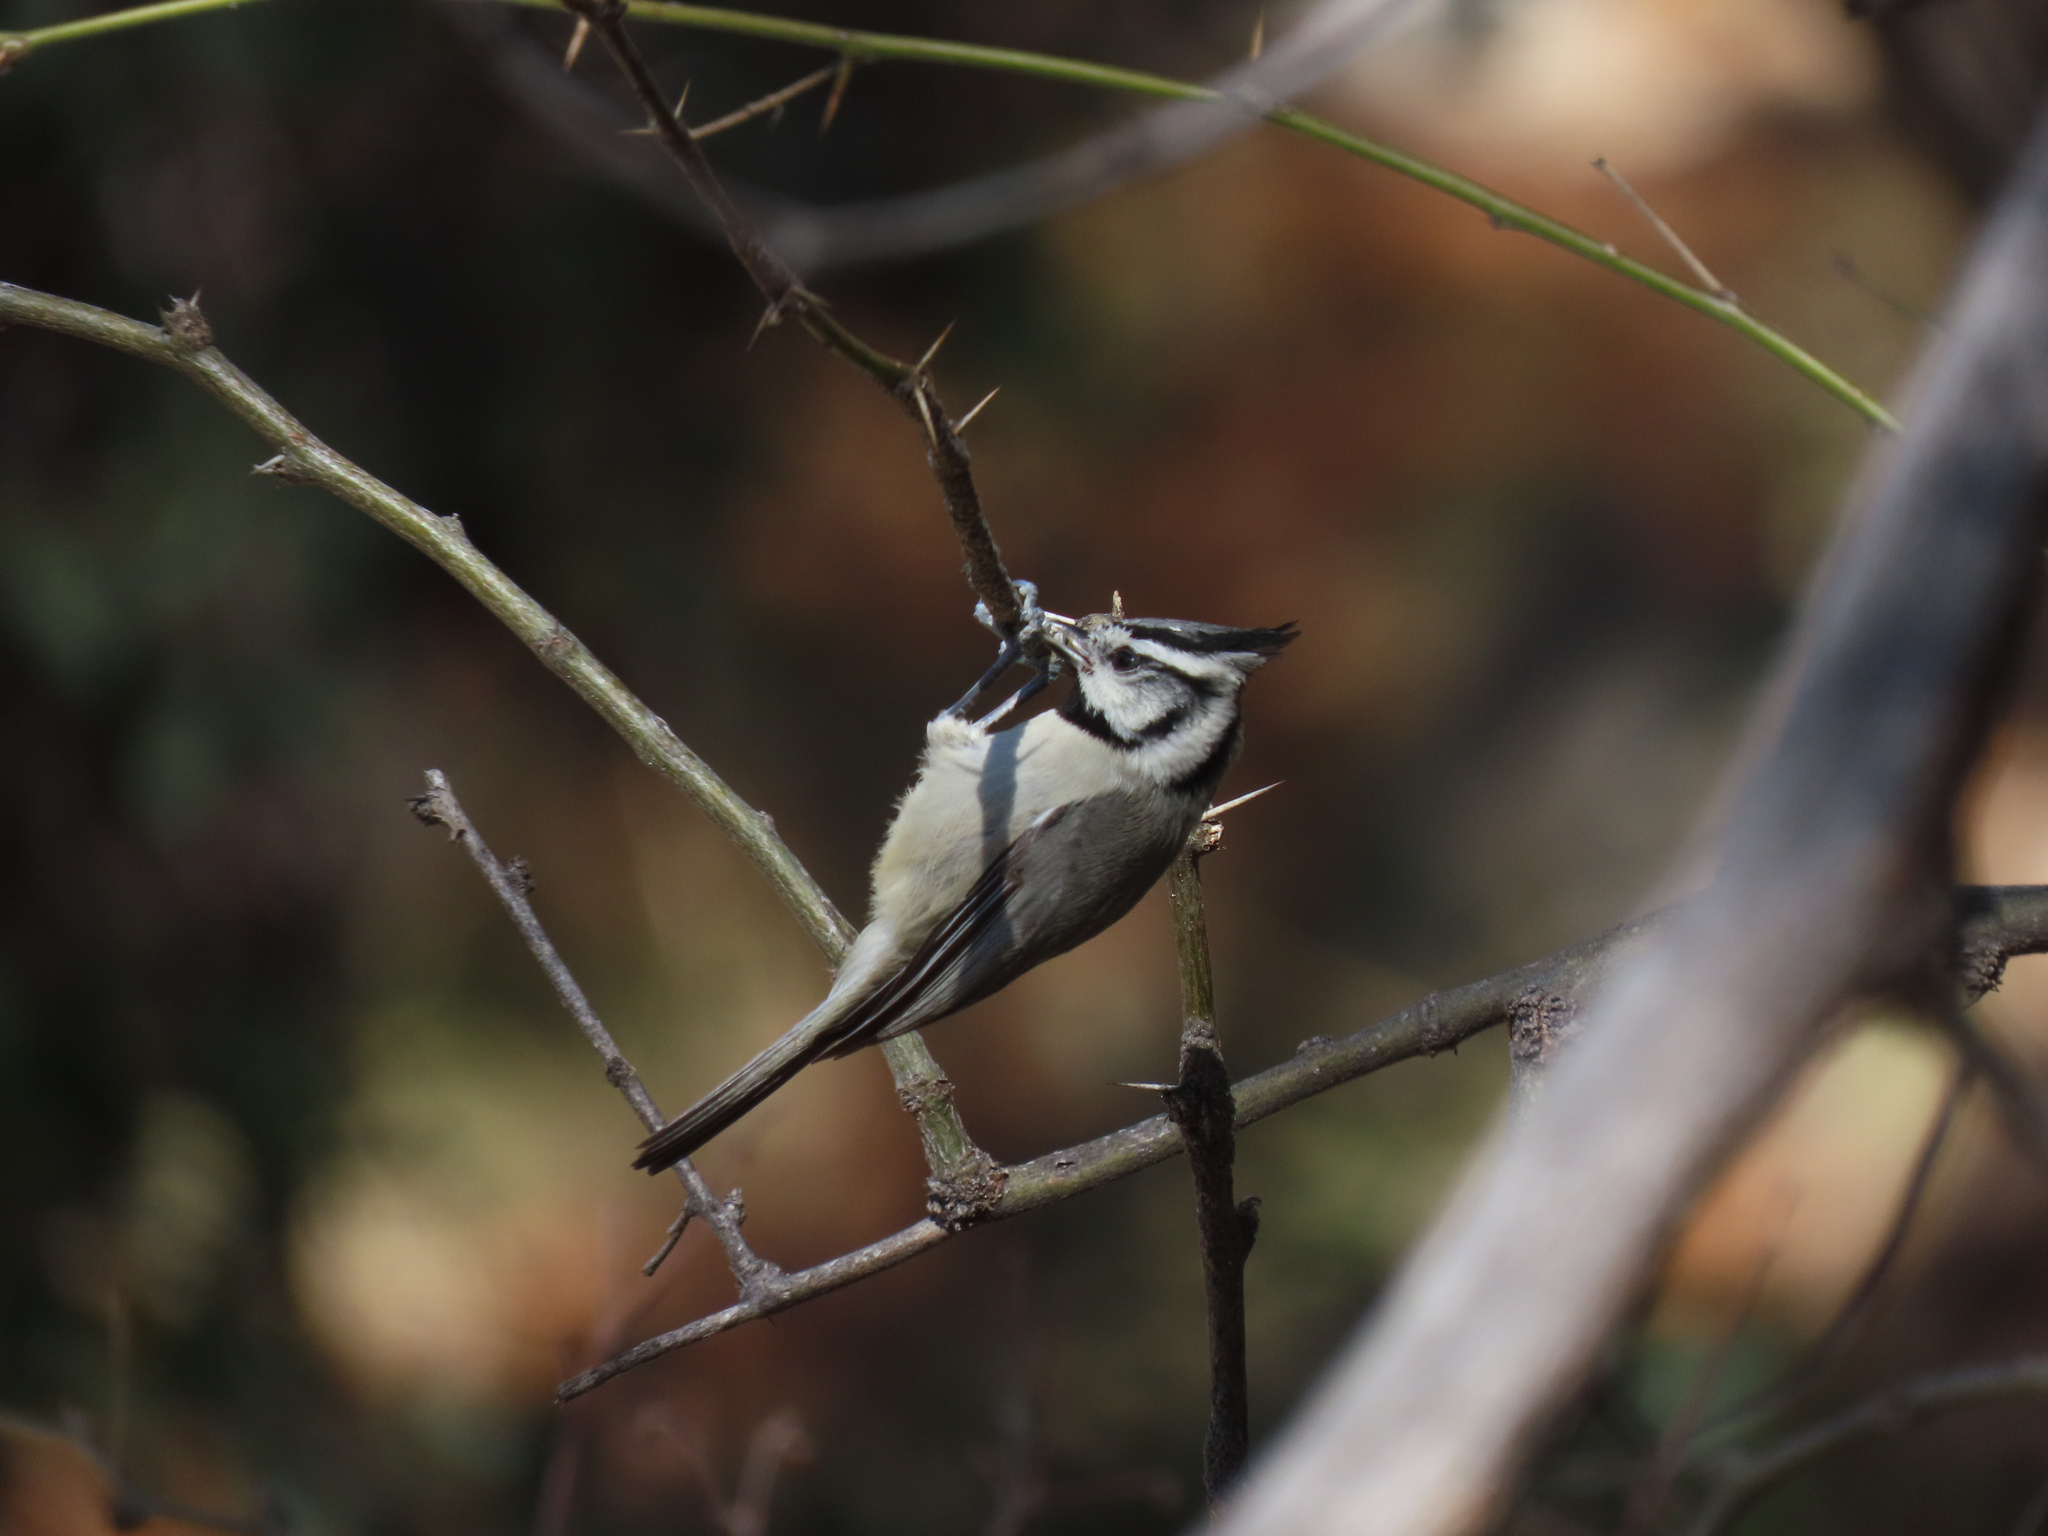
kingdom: Animalia
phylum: Chordata
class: Aves
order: Passeriformes
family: Paridae
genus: Baeolophus
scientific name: Baeolophus wollweberi
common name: Bridled titmouse
